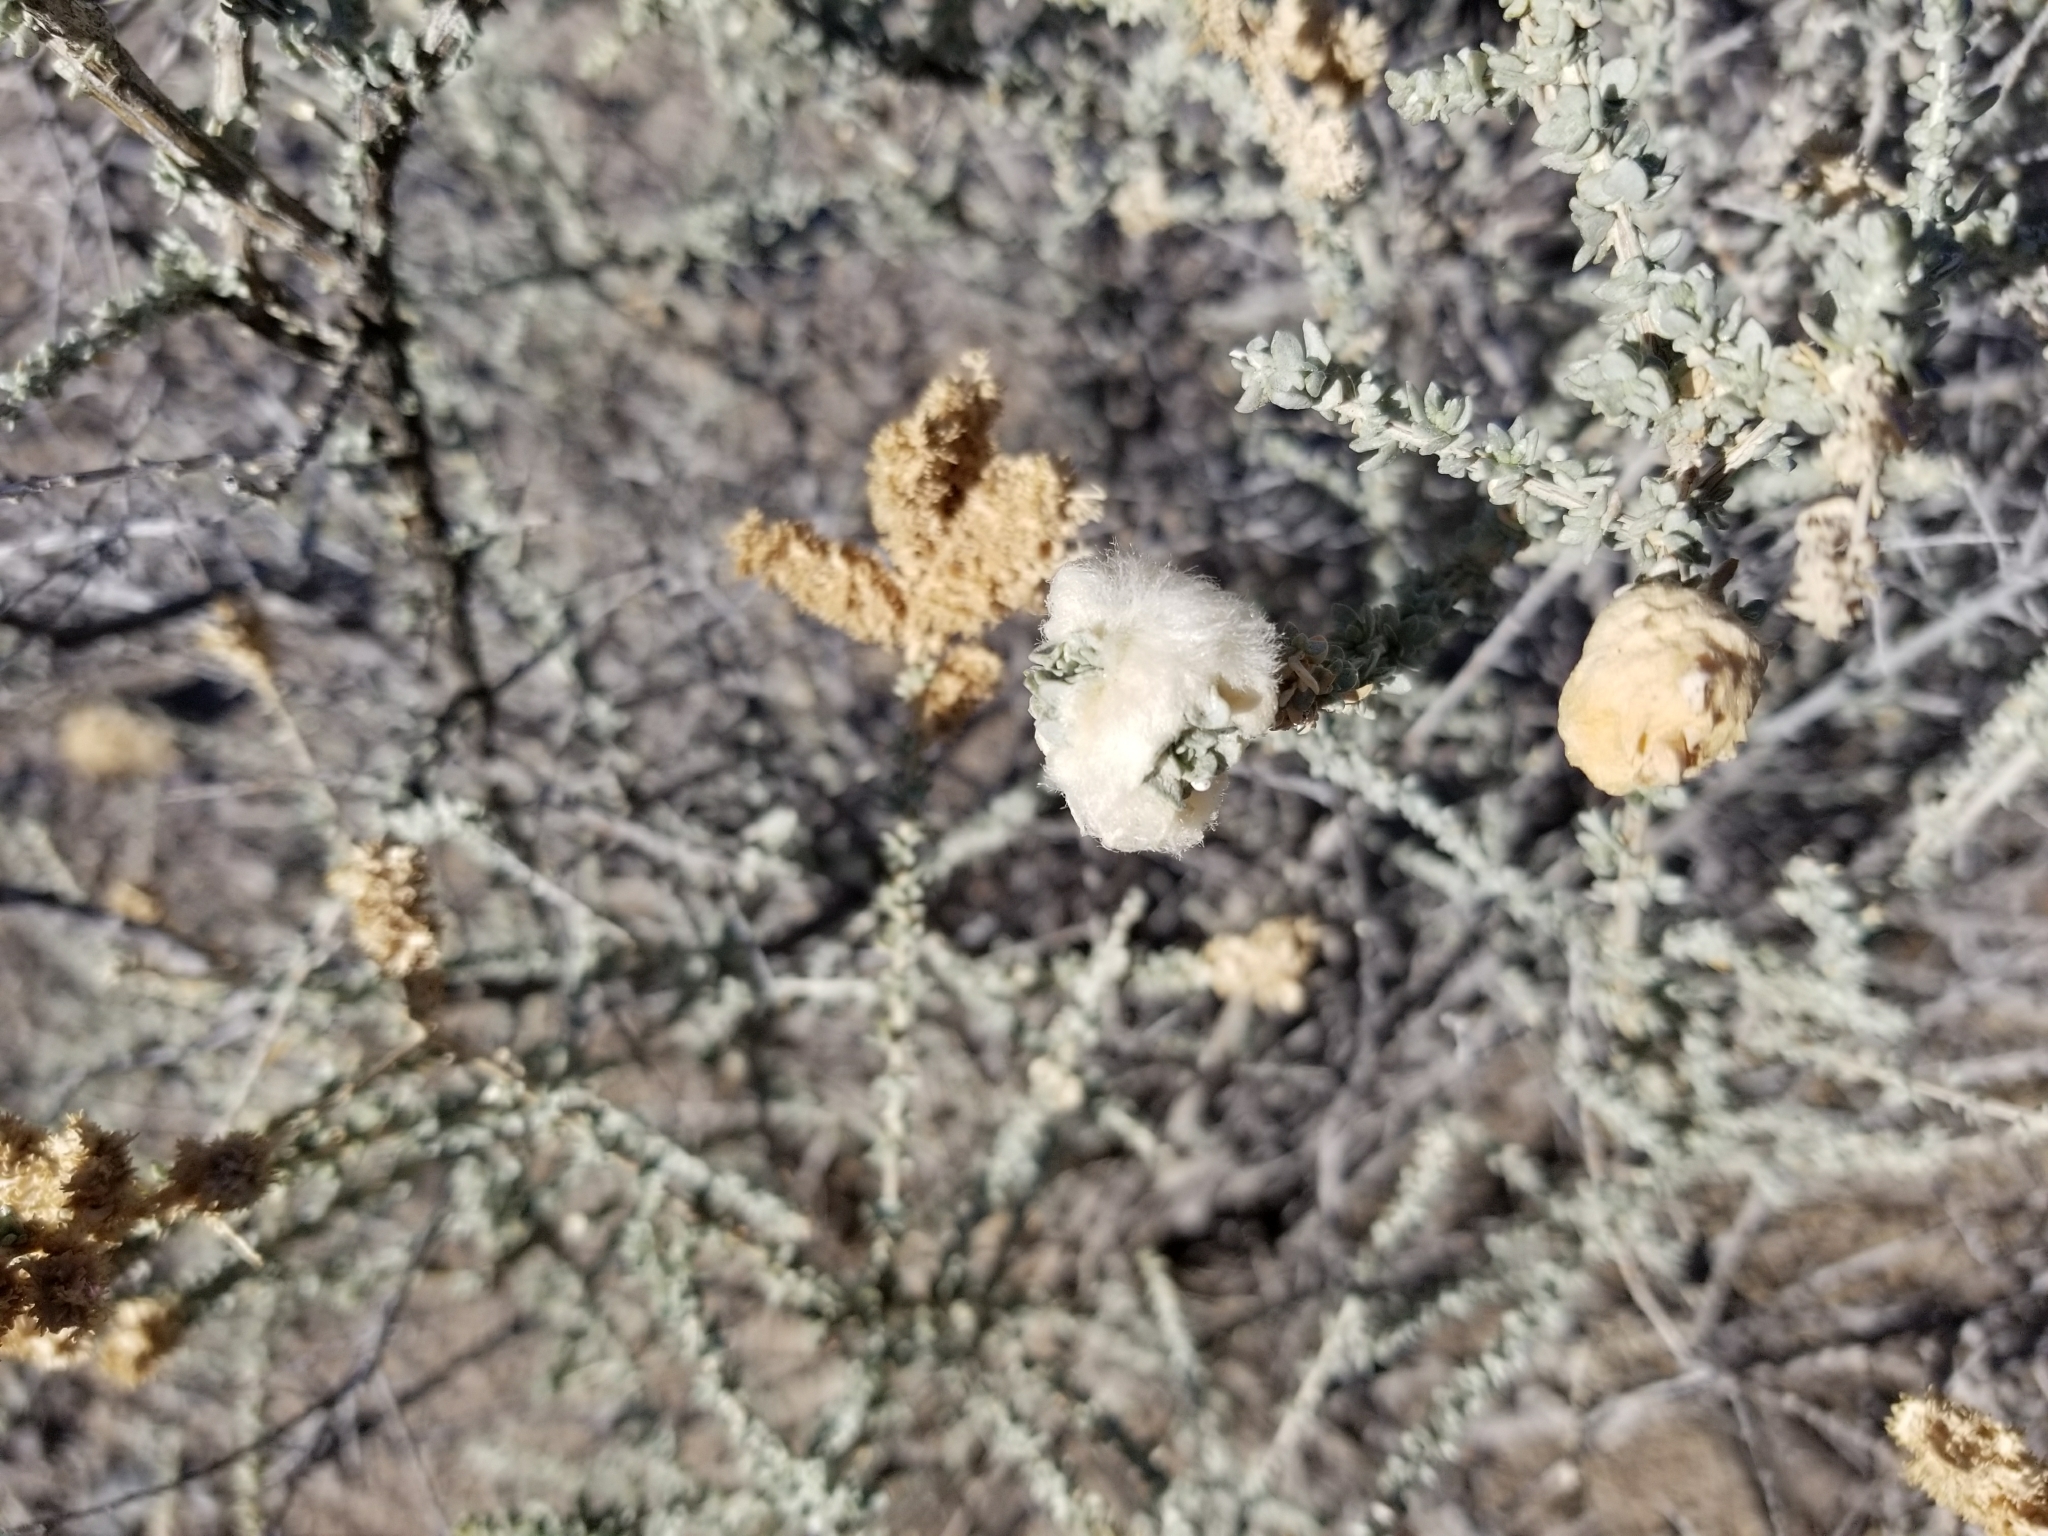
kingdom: Animalia
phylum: Arthropoda
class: Insecta
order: Diptera
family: Cecidomyiidae
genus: Asphondylia
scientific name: Asphondylia floccosa
